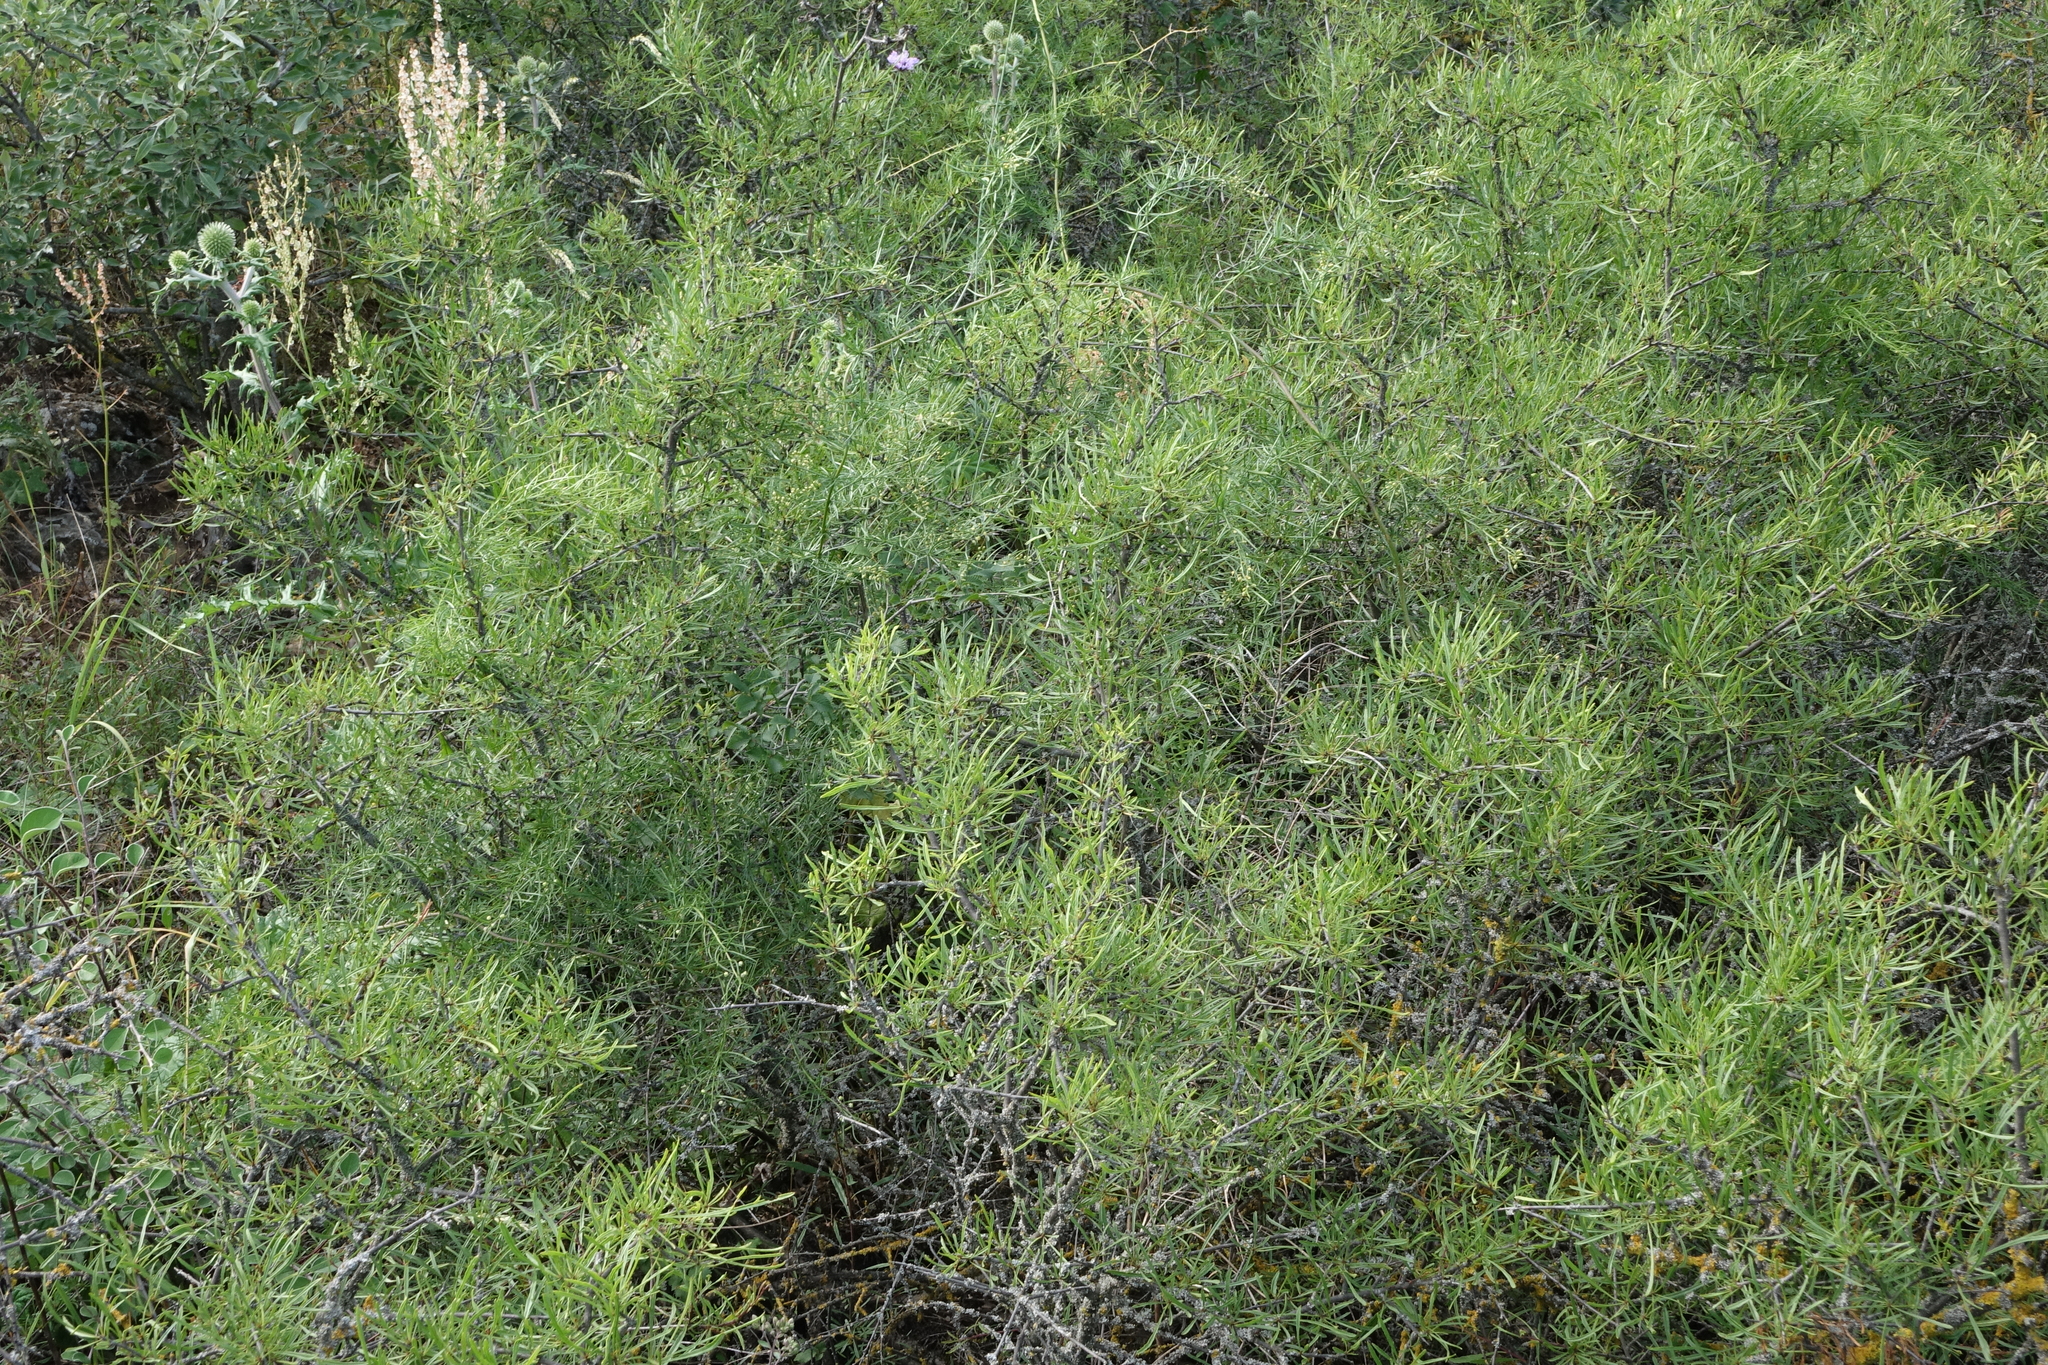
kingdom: Plantae
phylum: Tracheophyta
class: Magnoliopsida
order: Rosales
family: Rhamnaceae
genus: Rhamnus
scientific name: Rhamnus erythroxyloides
